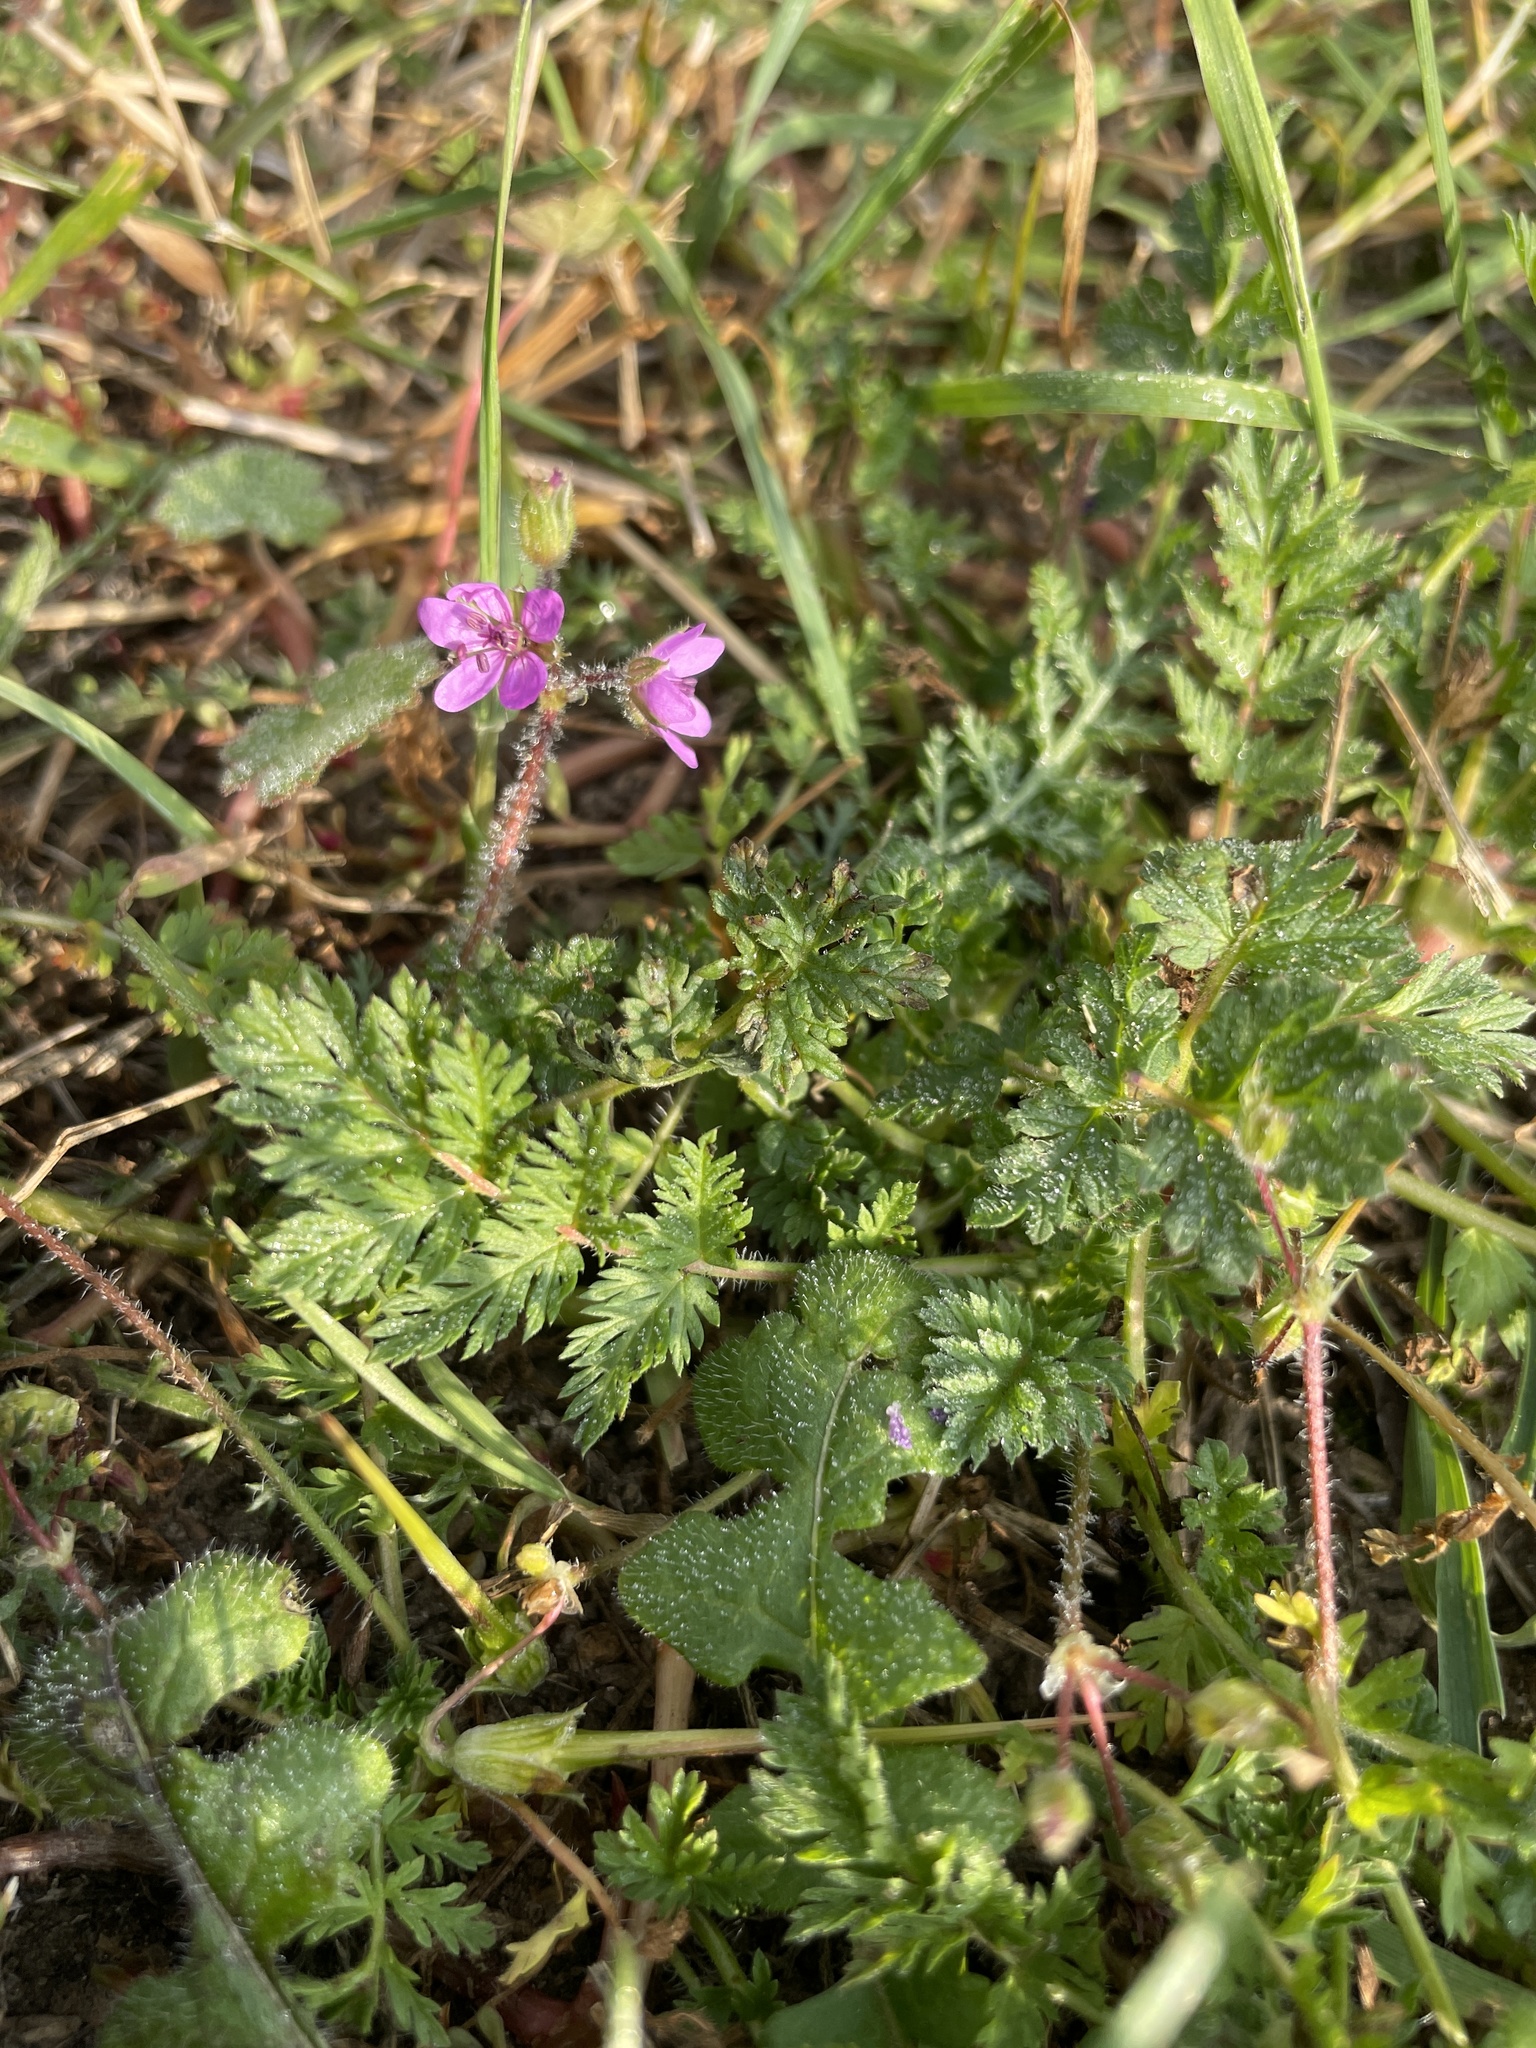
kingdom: Plantae
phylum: Tracheophyta
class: Magnoliopsida
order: Geraniales
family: Geraniaceae
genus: Erodium
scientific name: Erodium cicutarium
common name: Common stork's-bill
